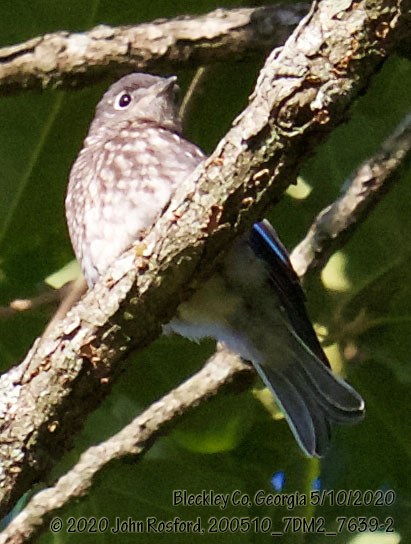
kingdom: Animalia
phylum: Chordata
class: Aves
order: Passeriformes
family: Turdidae
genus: Sialia
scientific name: Sialia sialis
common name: Eastern bluebird
